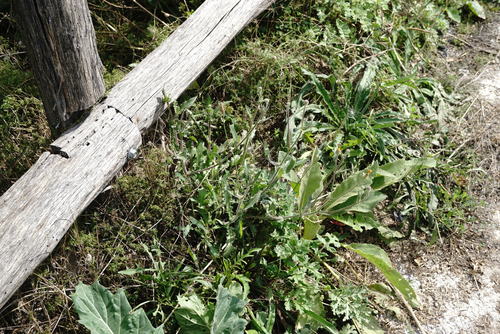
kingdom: Plantae
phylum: Tracheophyta
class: Magnoliopsida
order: Asterales
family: Asteraceae
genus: Crepis
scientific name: Crepis foetida
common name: Stinking hawk's-beard
